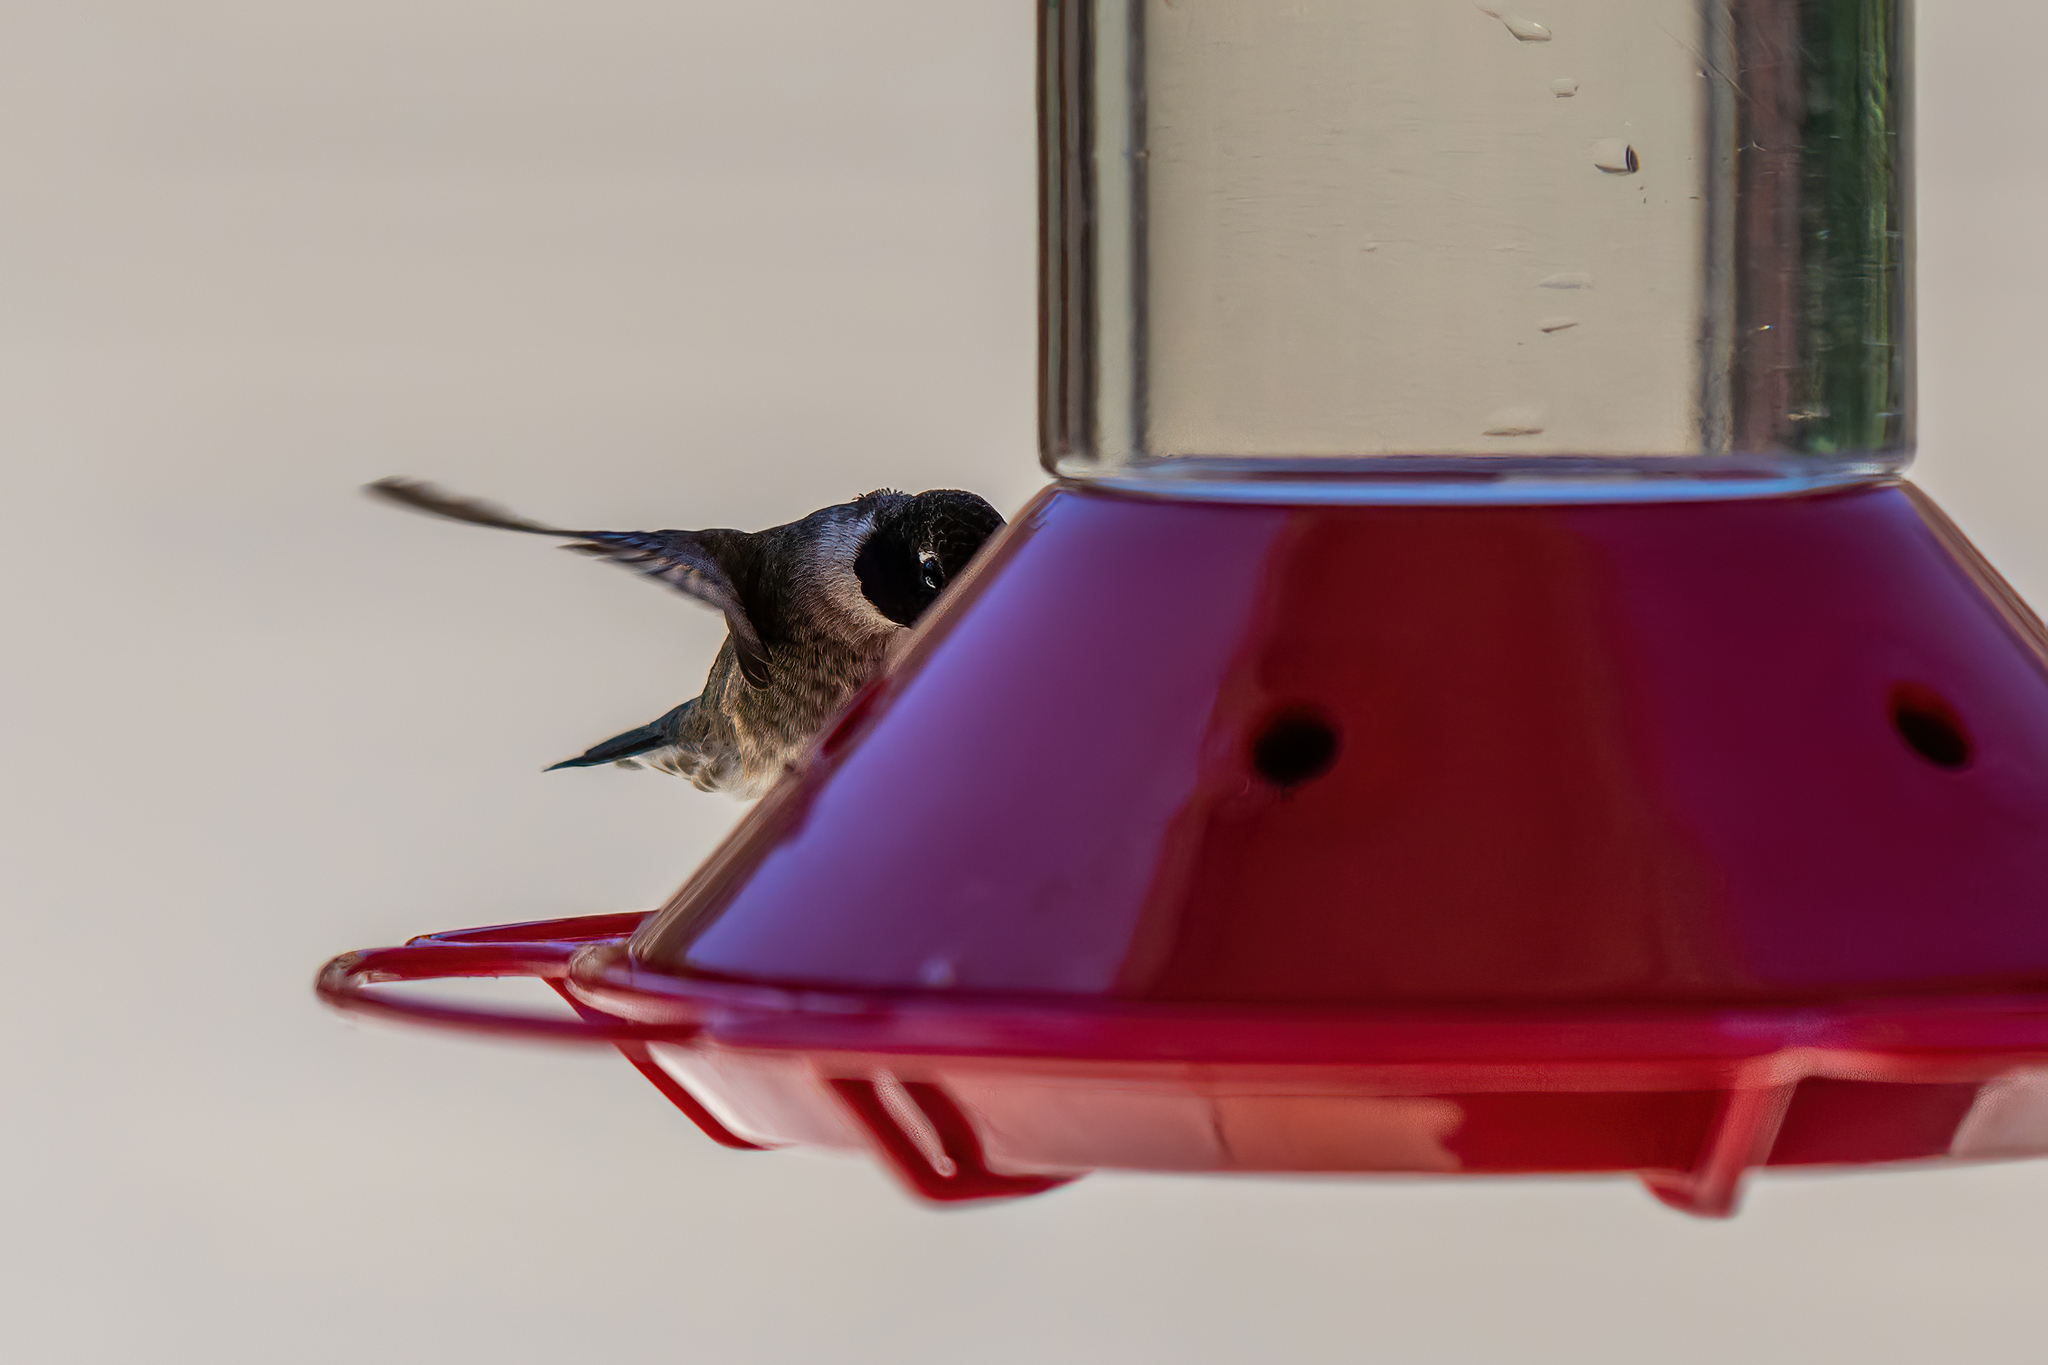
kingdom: Animalia
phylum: Chordata
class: Aves
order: Apodiformes
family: Trochilidae
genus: Archilochus
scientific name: Archilochus alexandri
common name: Black-chinned hummingbird
